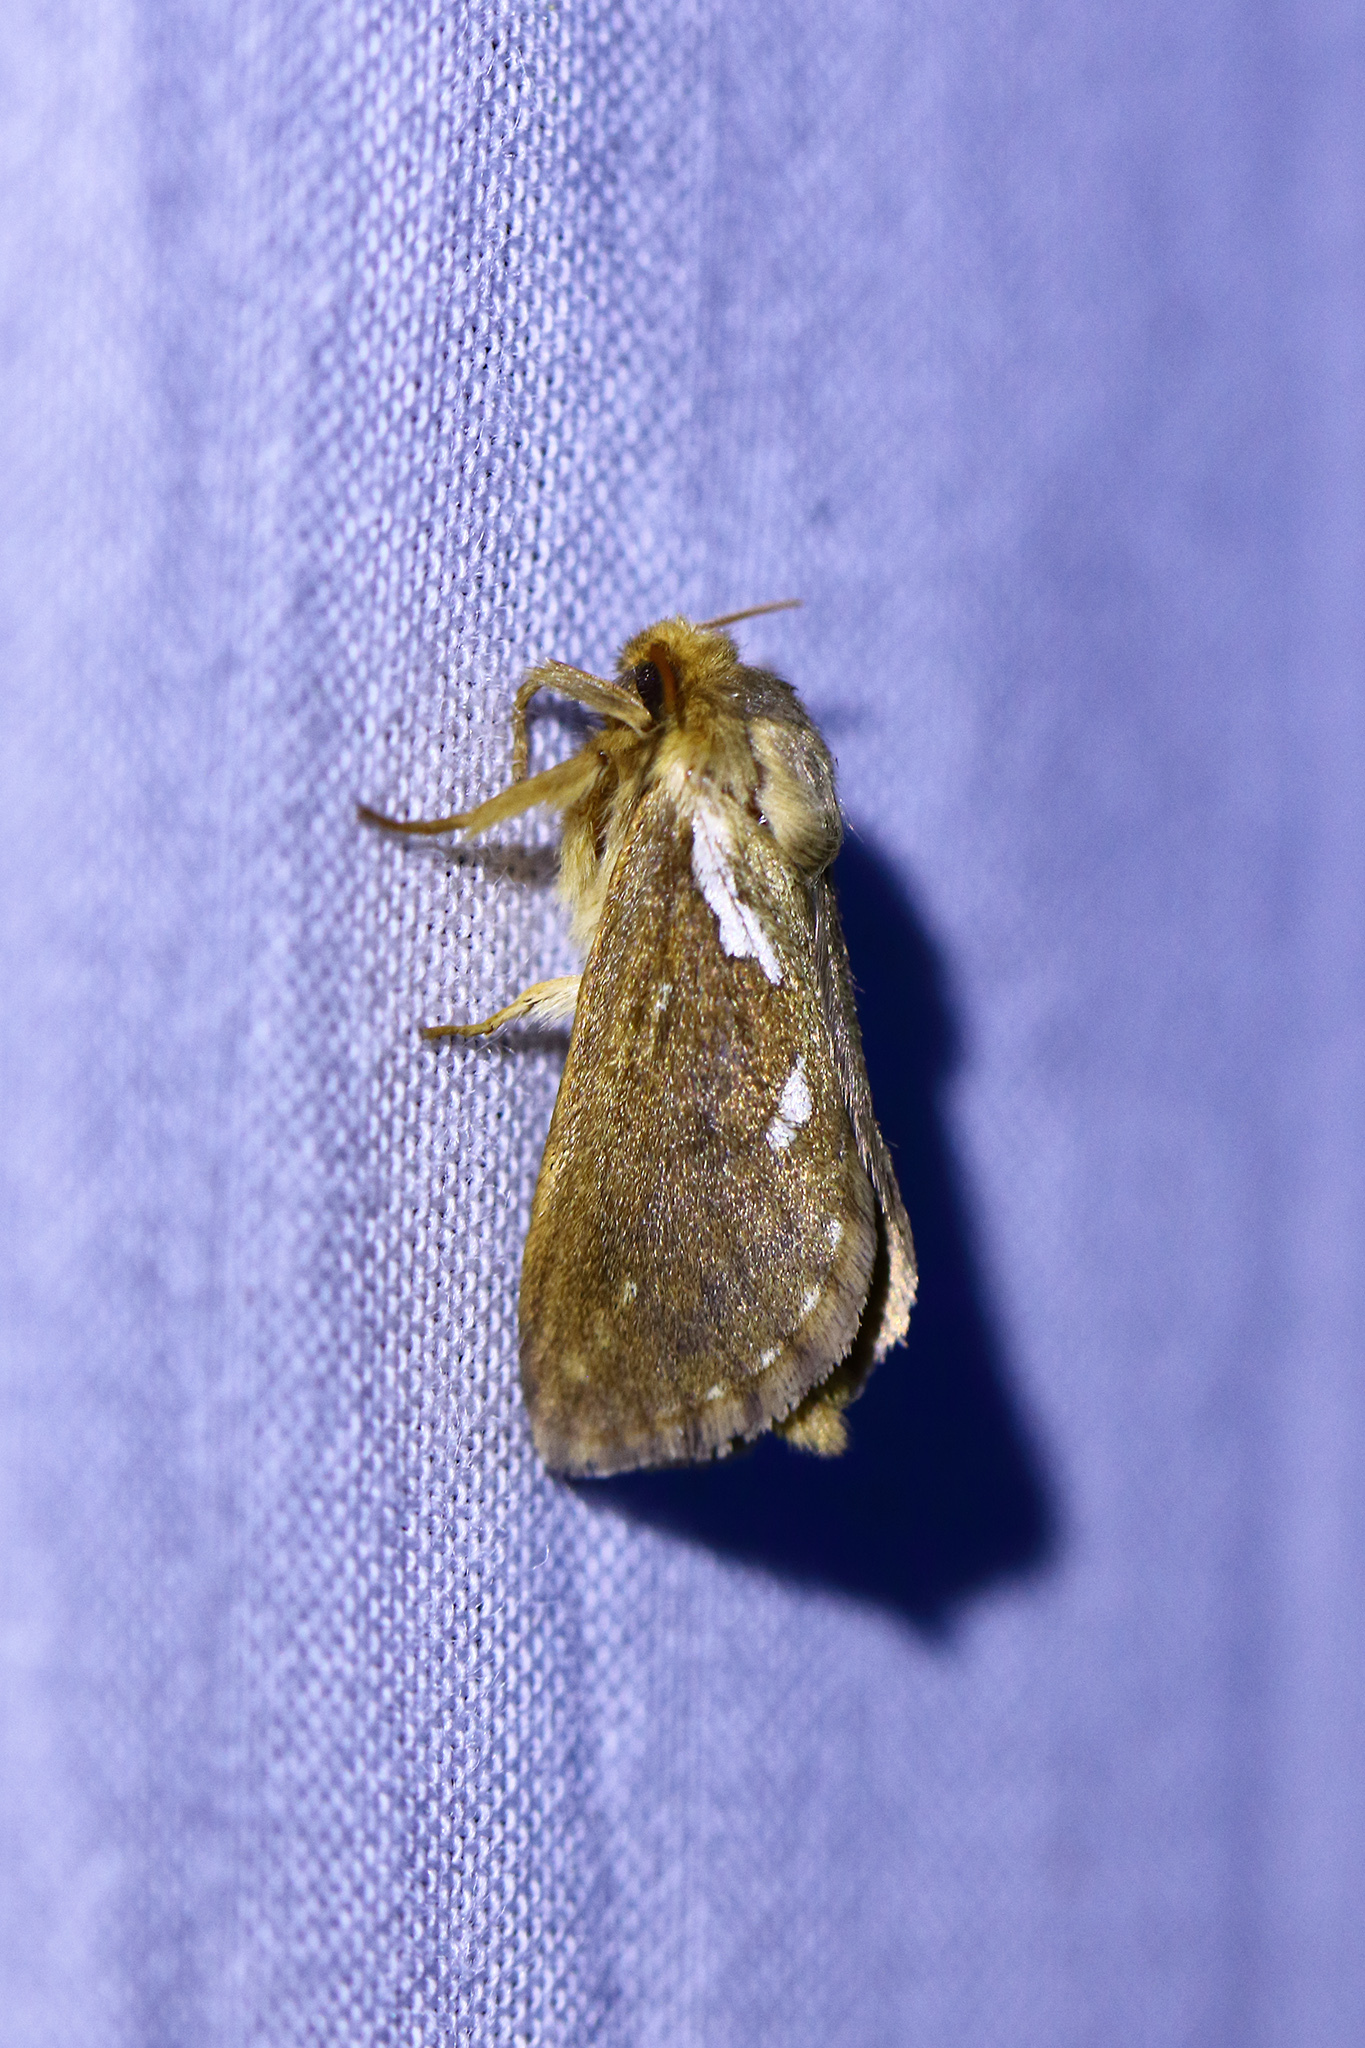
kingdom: Animalia
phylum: Arthropoda
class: Insecta
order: Lepidoptera
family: Hepialidae
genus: Korscheltellus
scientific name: Korscheltellus lupulina
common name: Common swift
